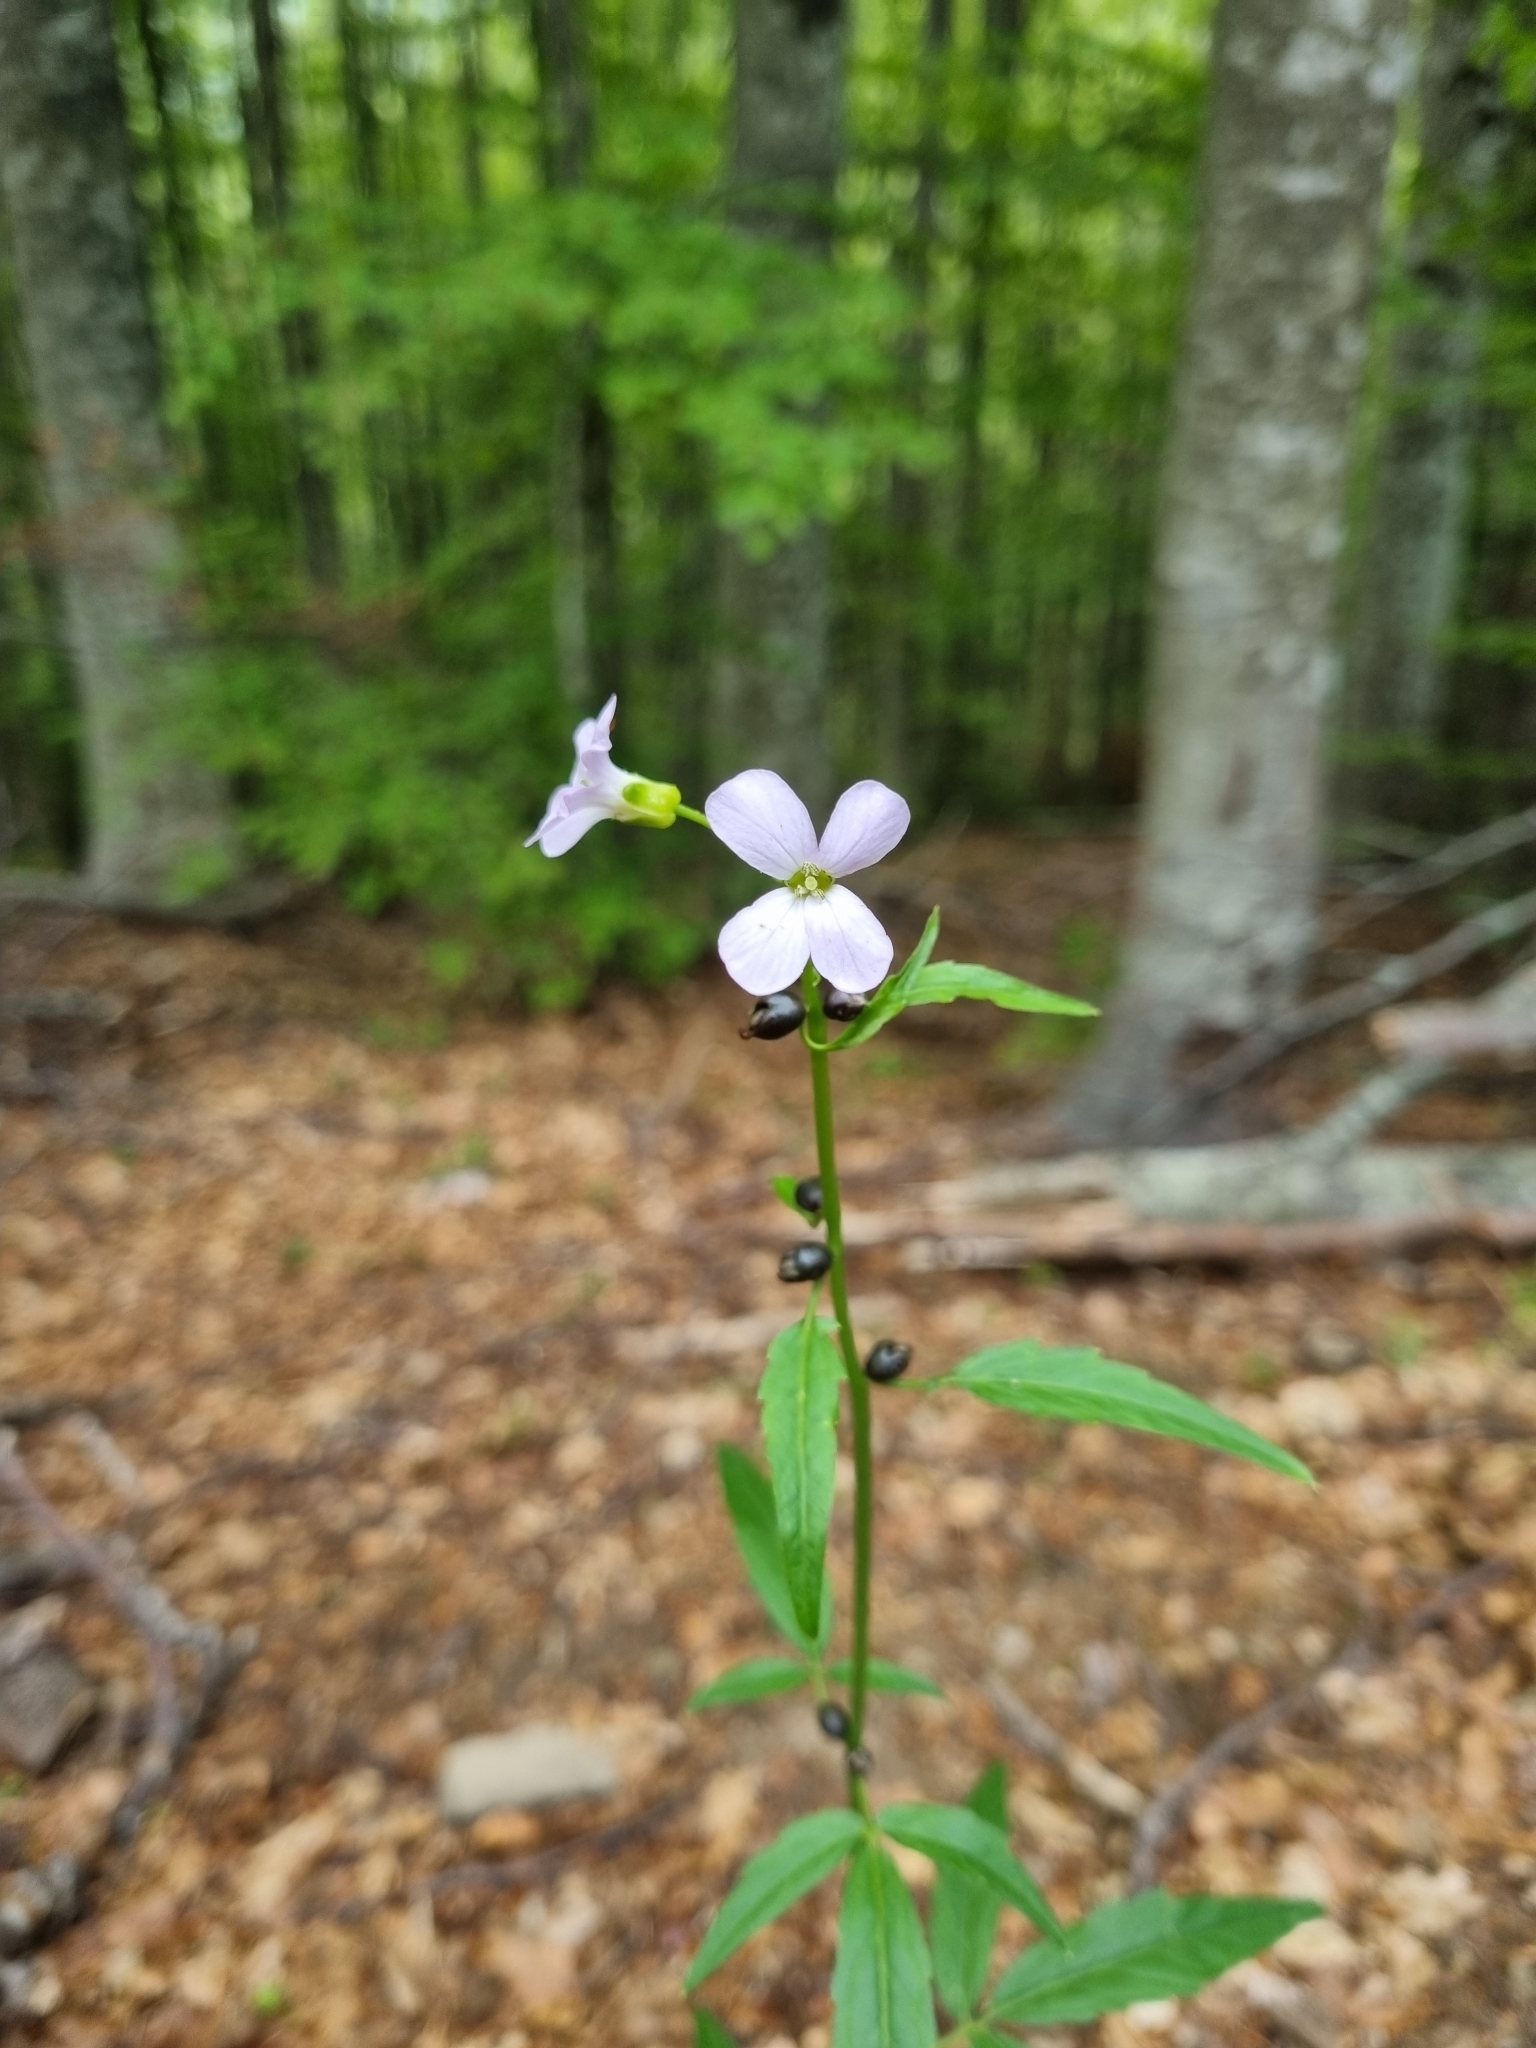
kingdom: Plantae
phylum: Tracheophyta
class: Magnoliopsida
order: Brassicales
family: Brassicaceae
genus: Cardamine
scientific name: Cardamine bulbifera
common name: Coralroot bittercress
